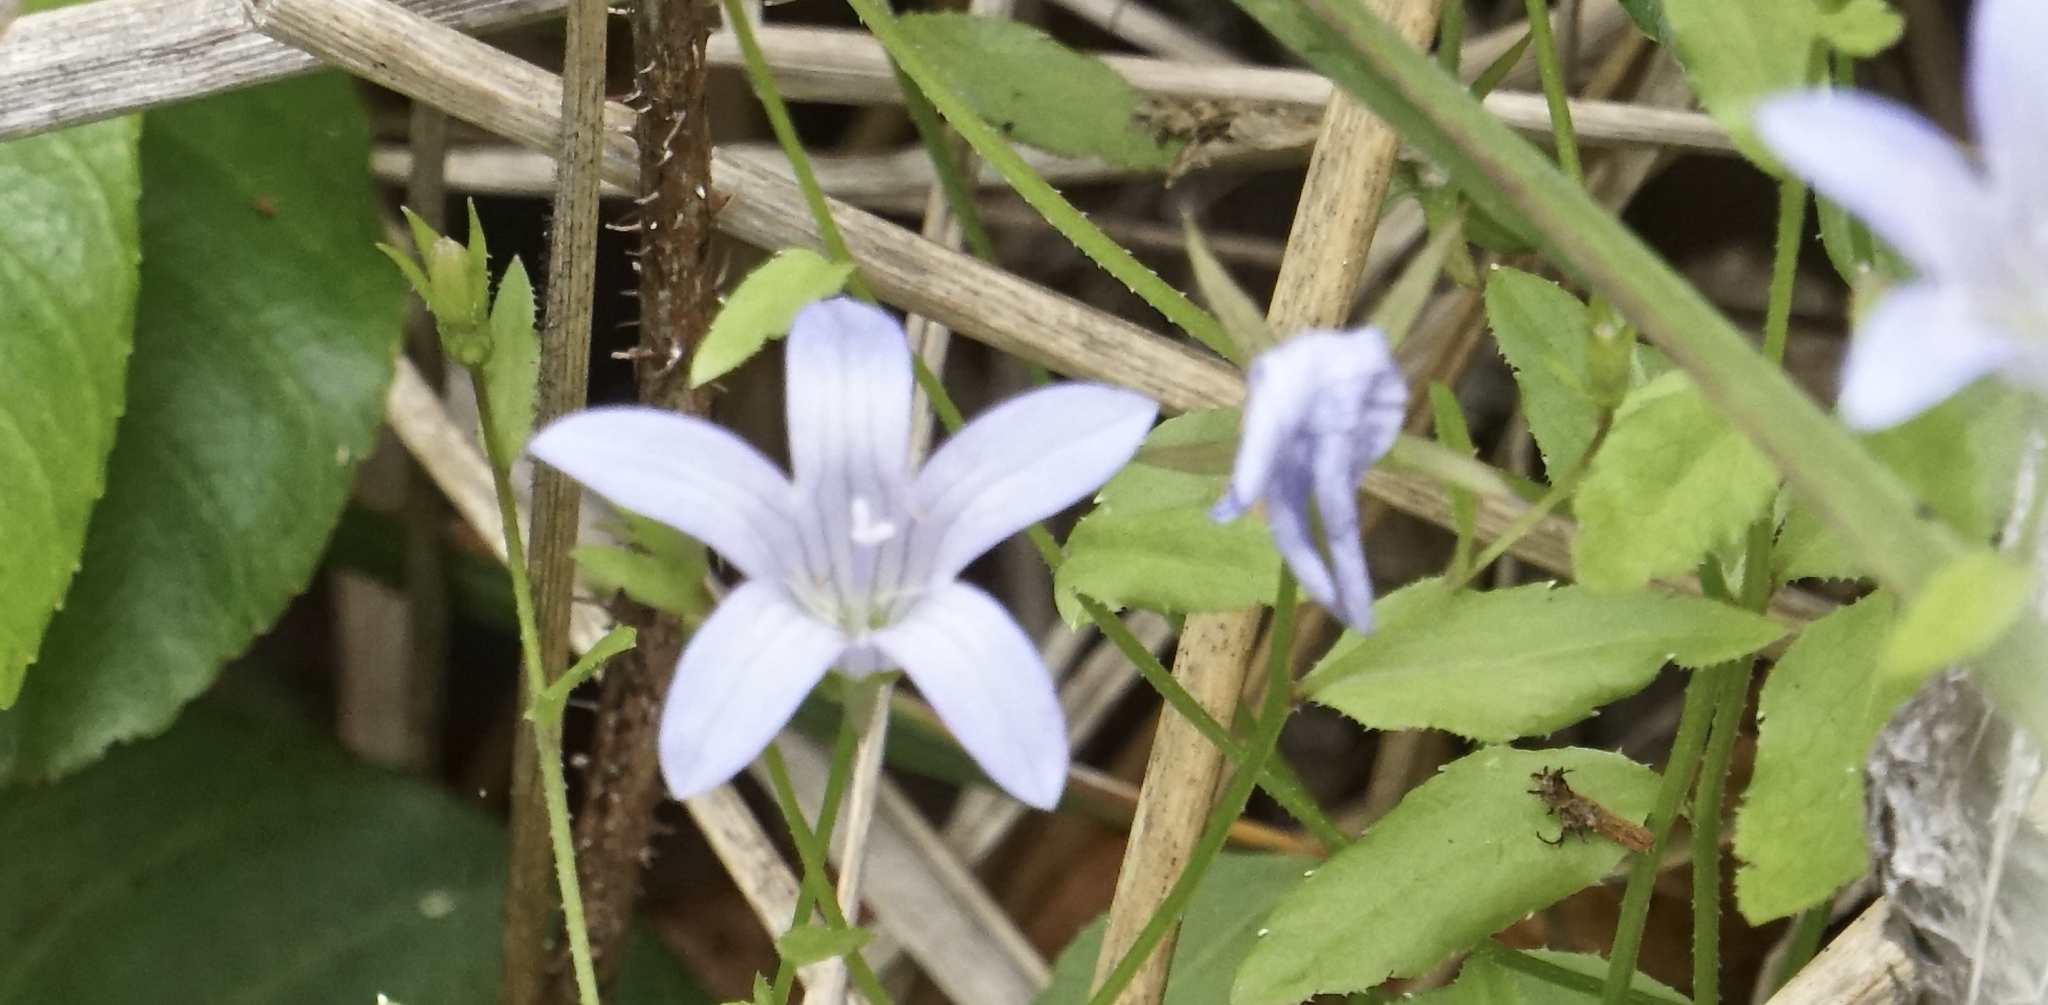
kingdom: Plantae
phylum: Tracheophyta
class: Magnoliopsida
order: Asterales
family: Campanulaceae
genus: Eastwoodiella
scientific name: Eastwoodiella californica
